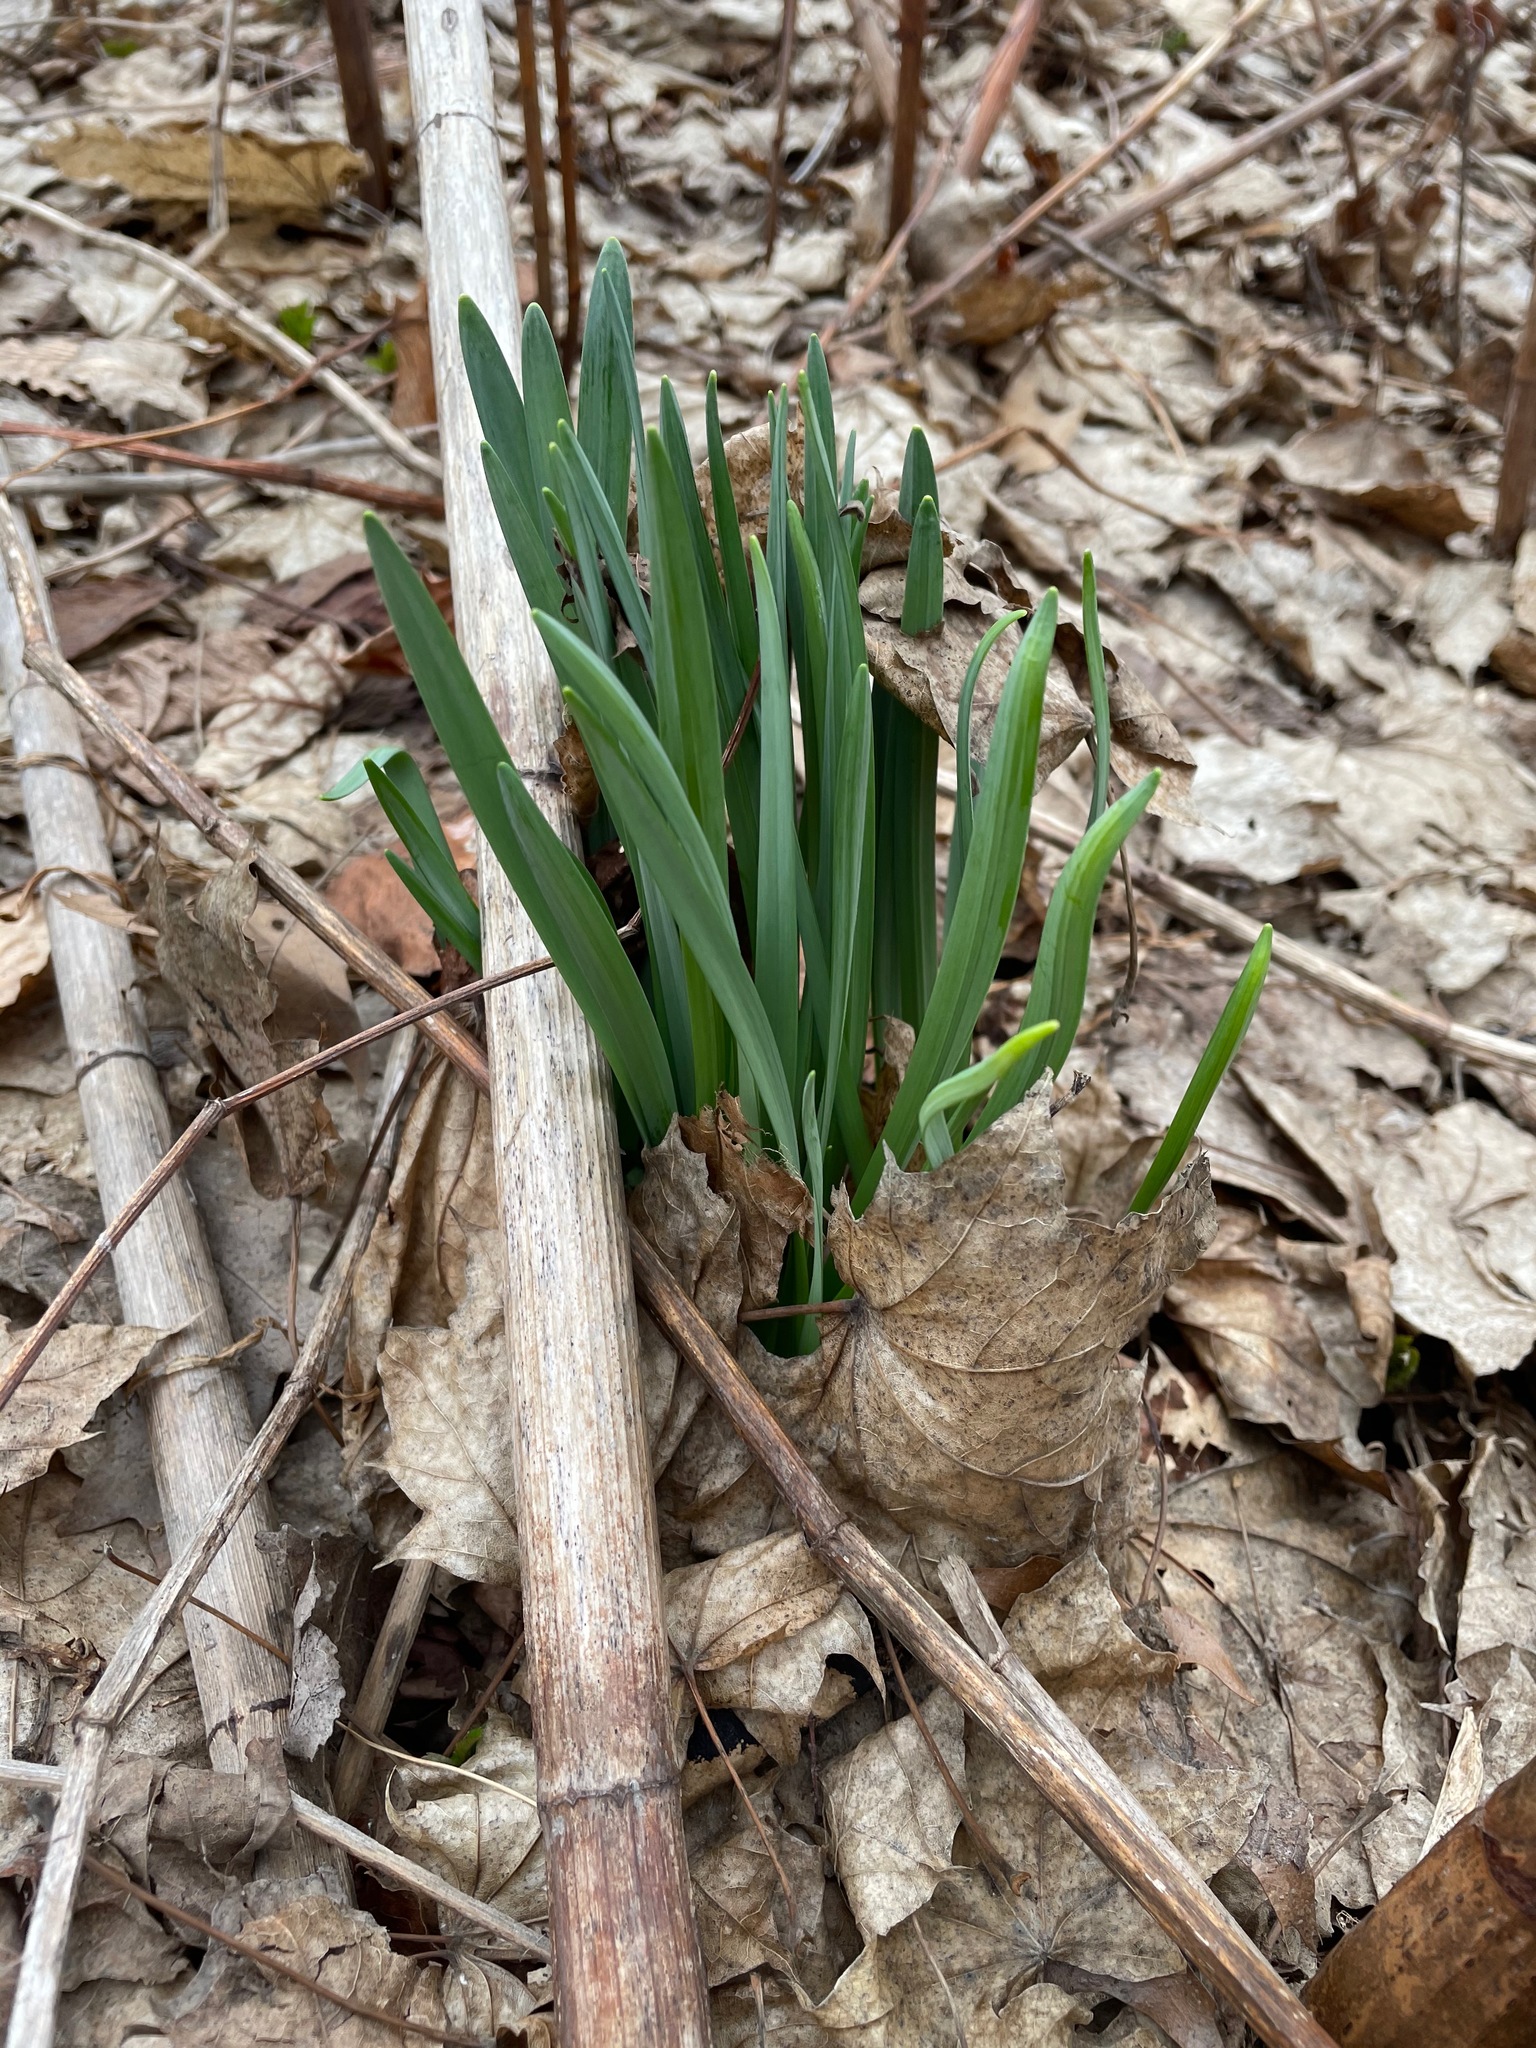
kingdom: Plantae
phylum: Tracheophyta
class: Liliopsida
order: Asparagales
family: Amaryllidaceae
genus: Narcissus
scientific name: Narcissus
